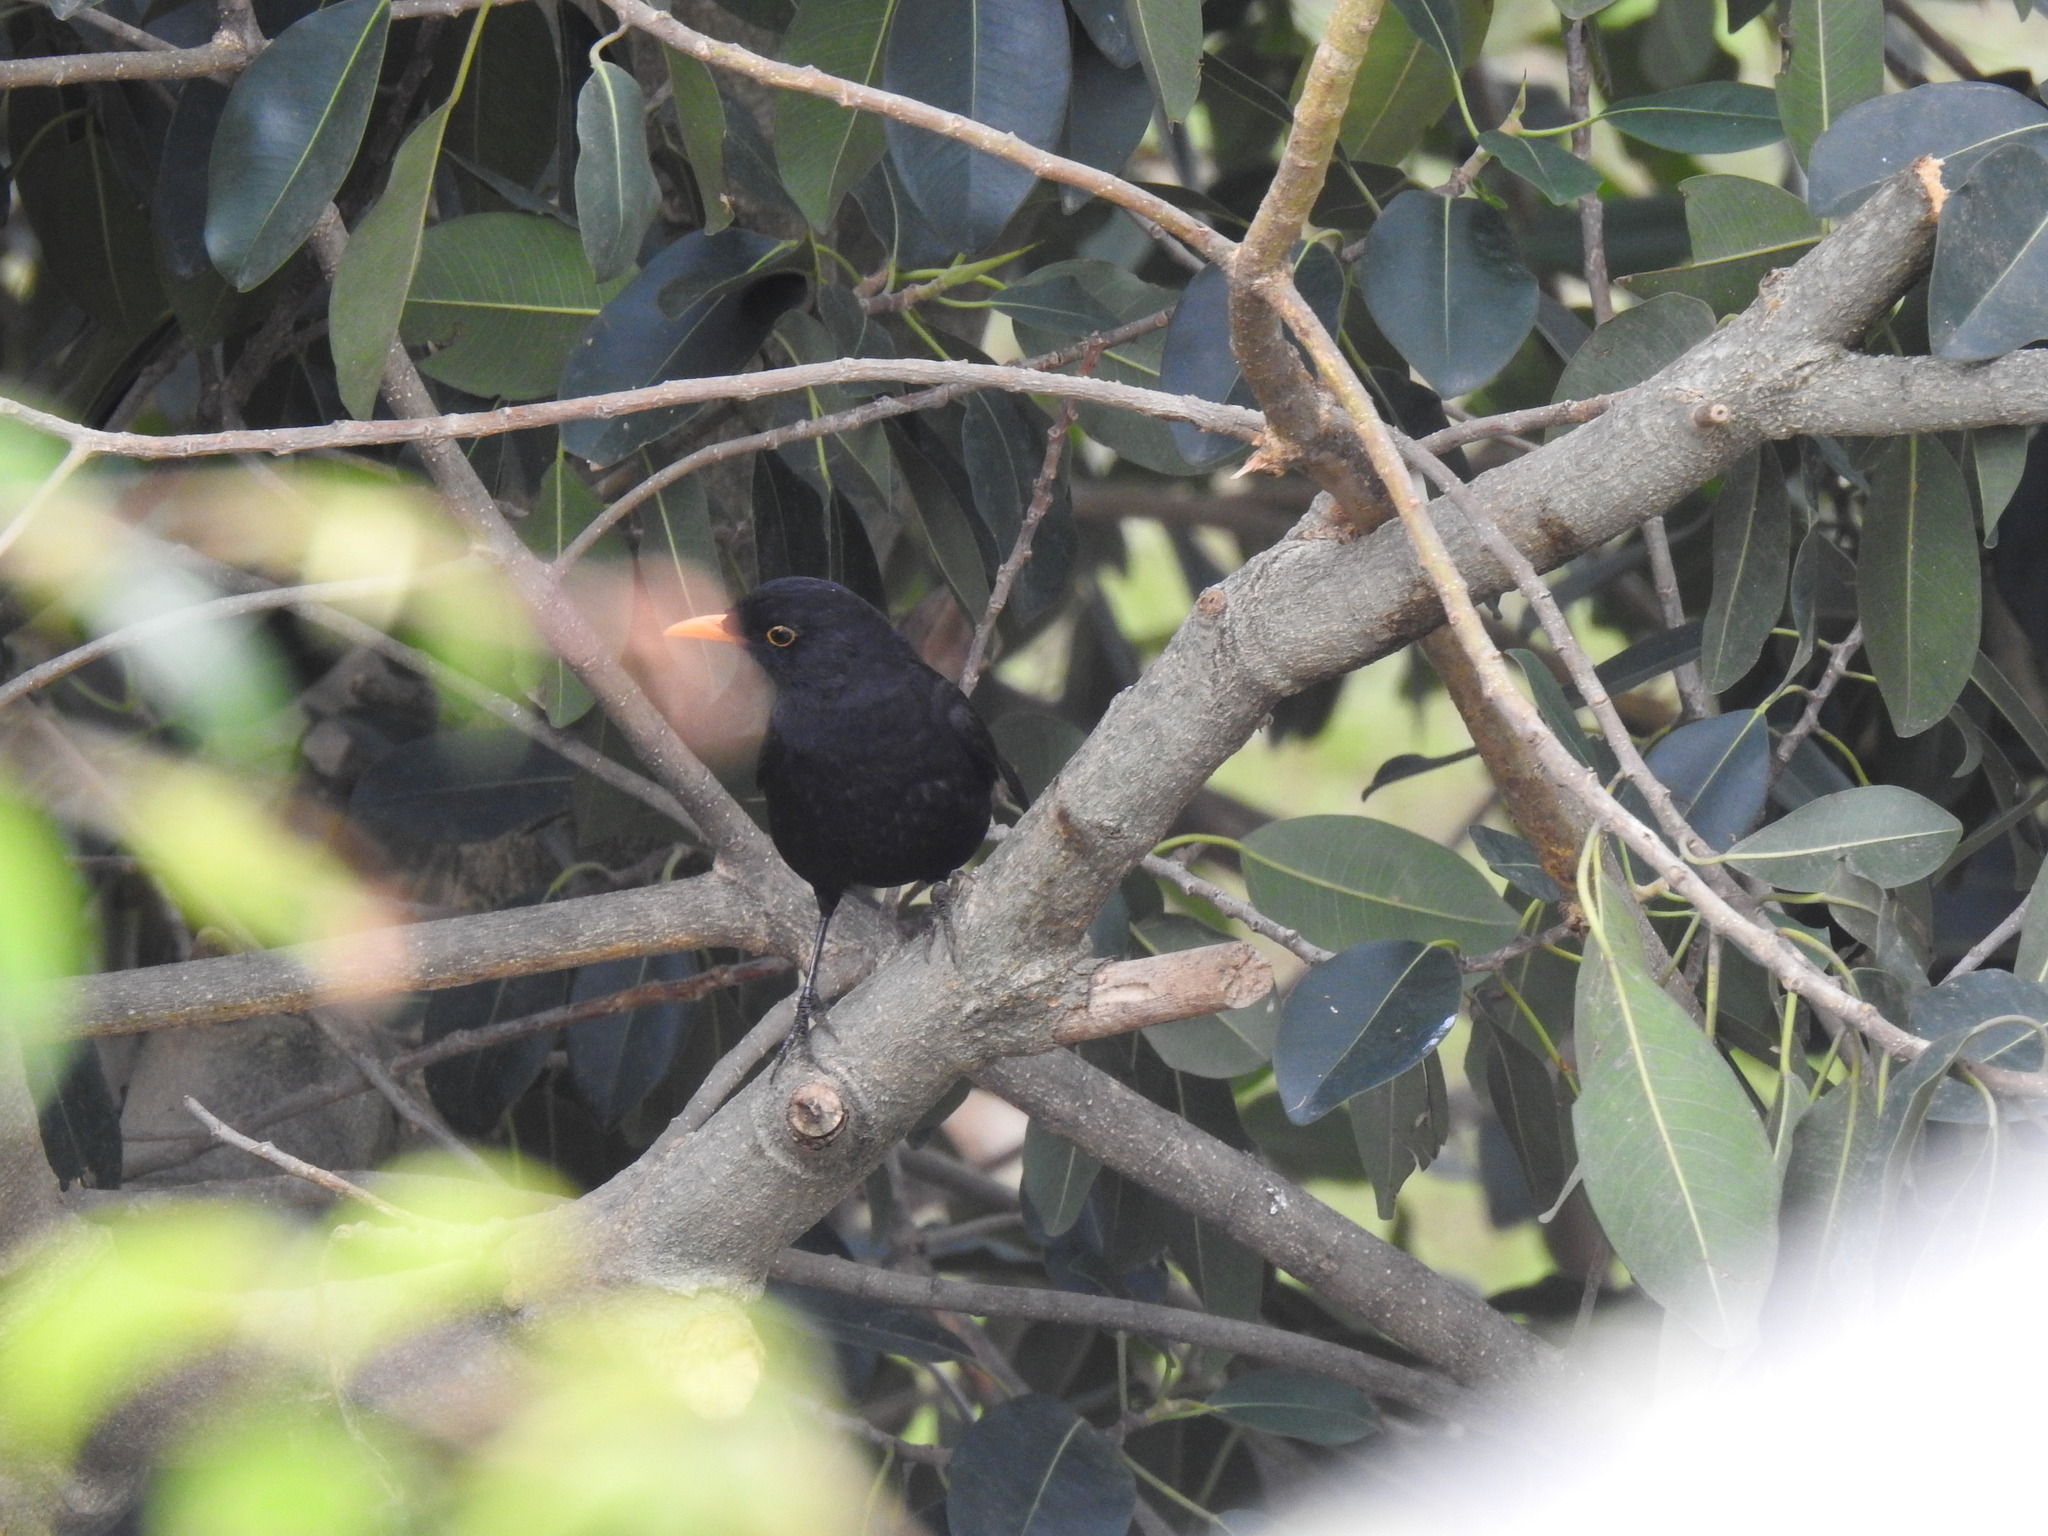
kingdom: Animalia
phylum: Chordata
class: Aves
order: Passeriformes
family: Turdidae
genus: Turdus
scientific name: Turdus merula
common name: Common blackbird
